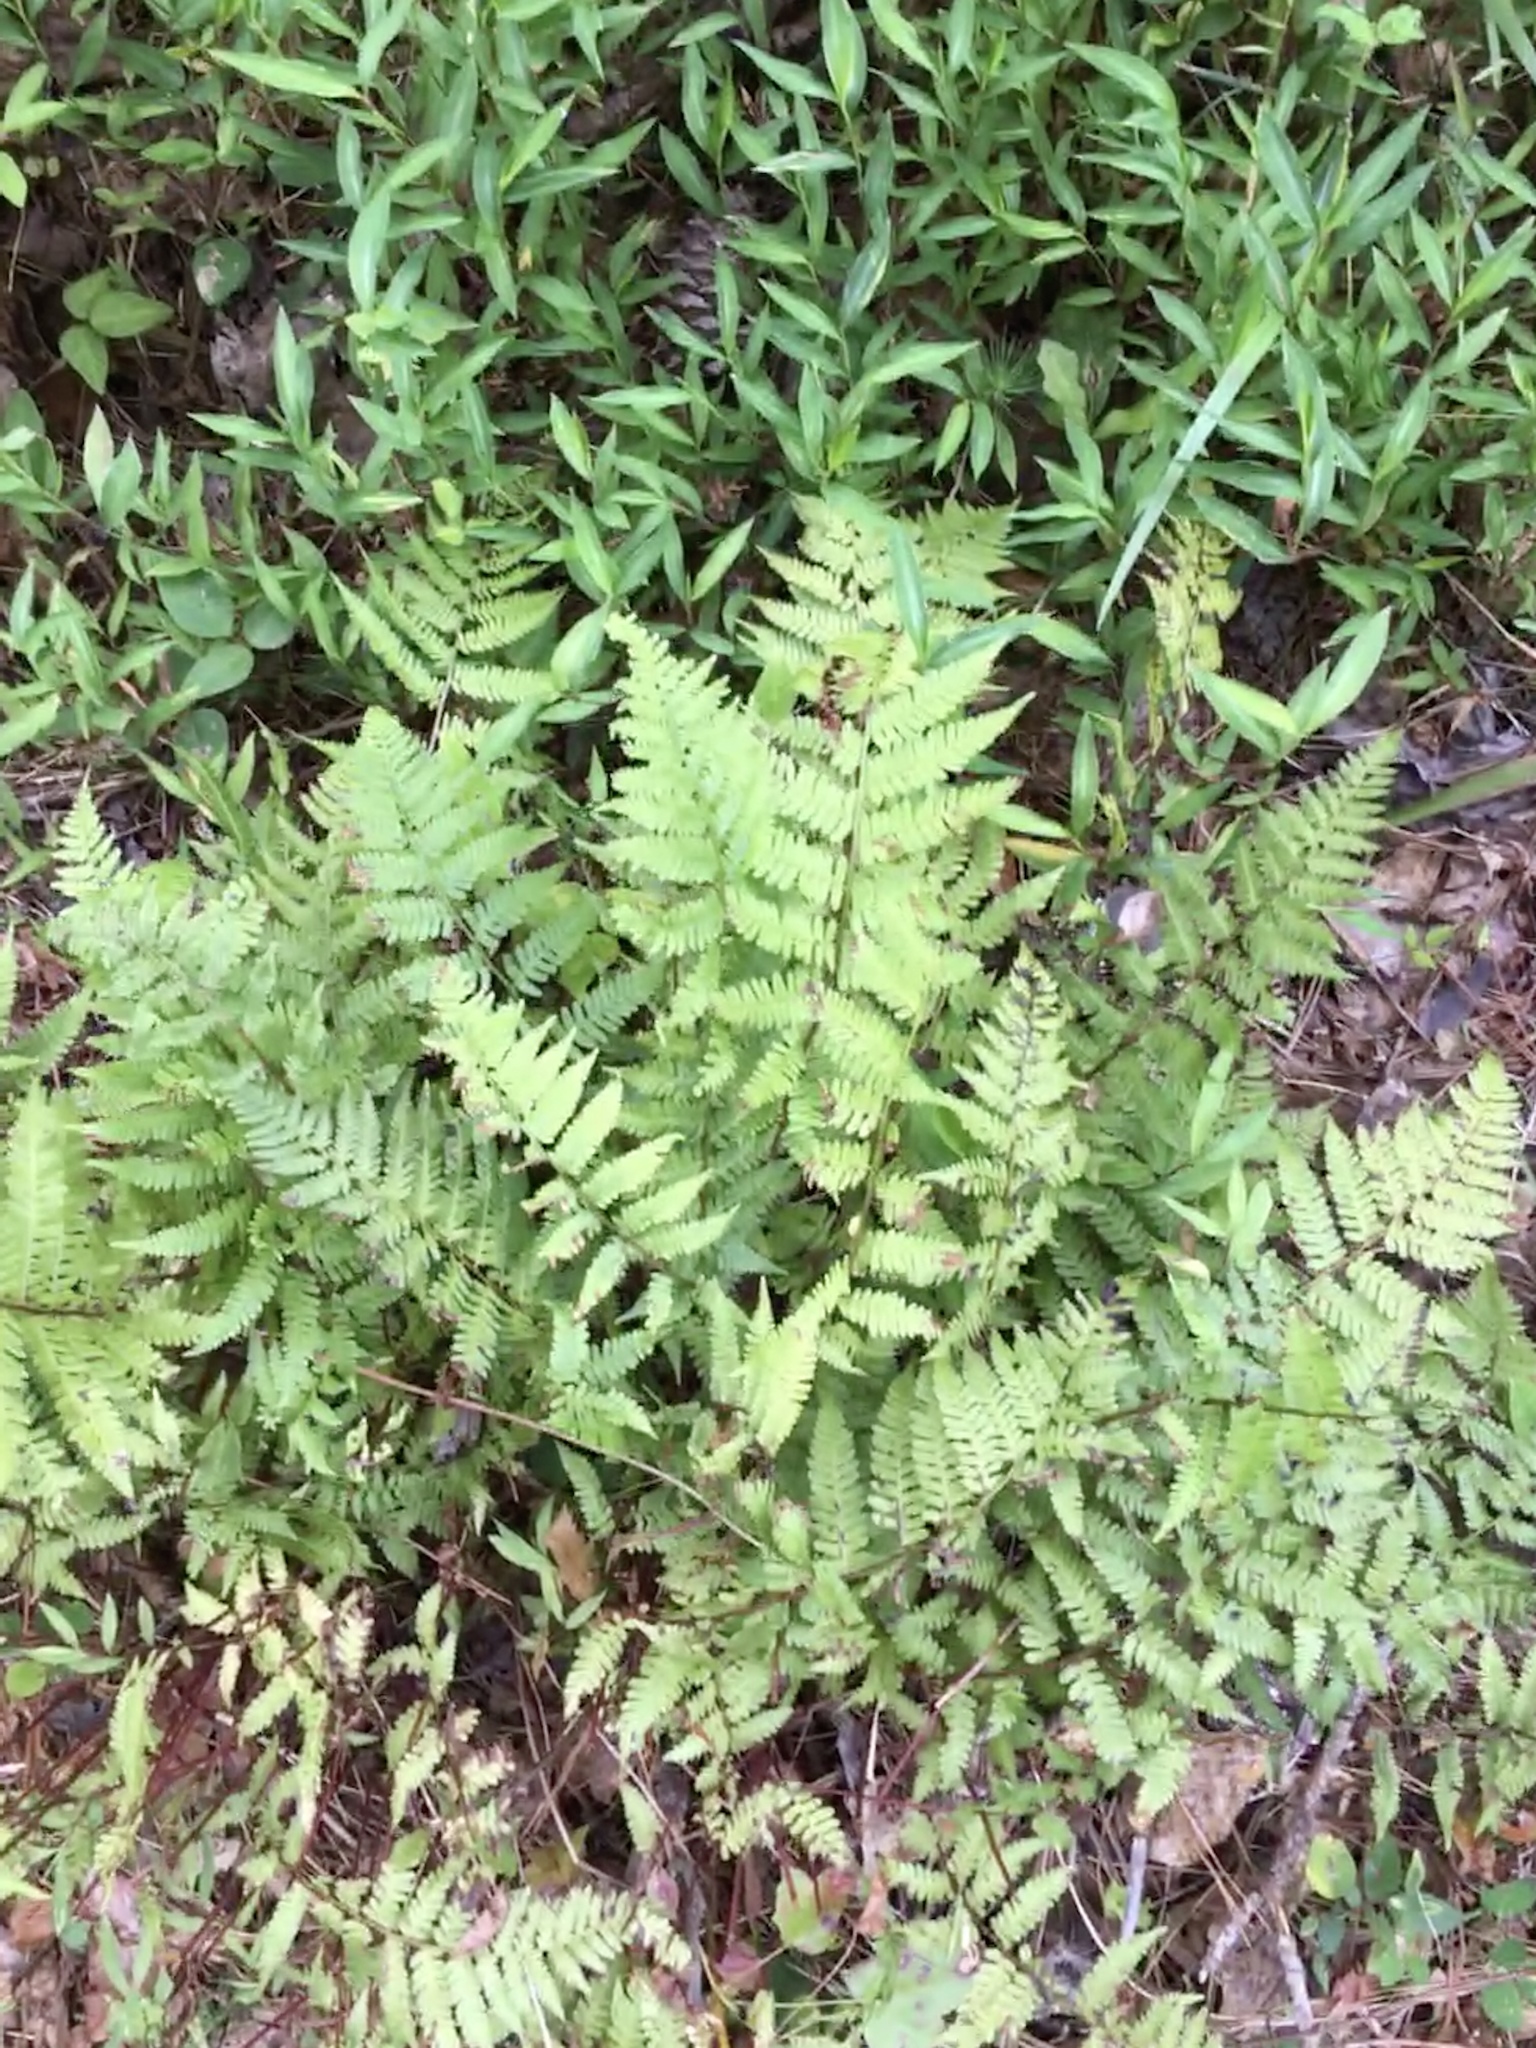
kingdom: Plantae
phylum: Tracheophyta
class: Polypodiopsida
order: Polypodiales
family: Athyriaceae
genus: Athyrium
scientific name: Athyrium asplenioides
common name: Southern lady fern
